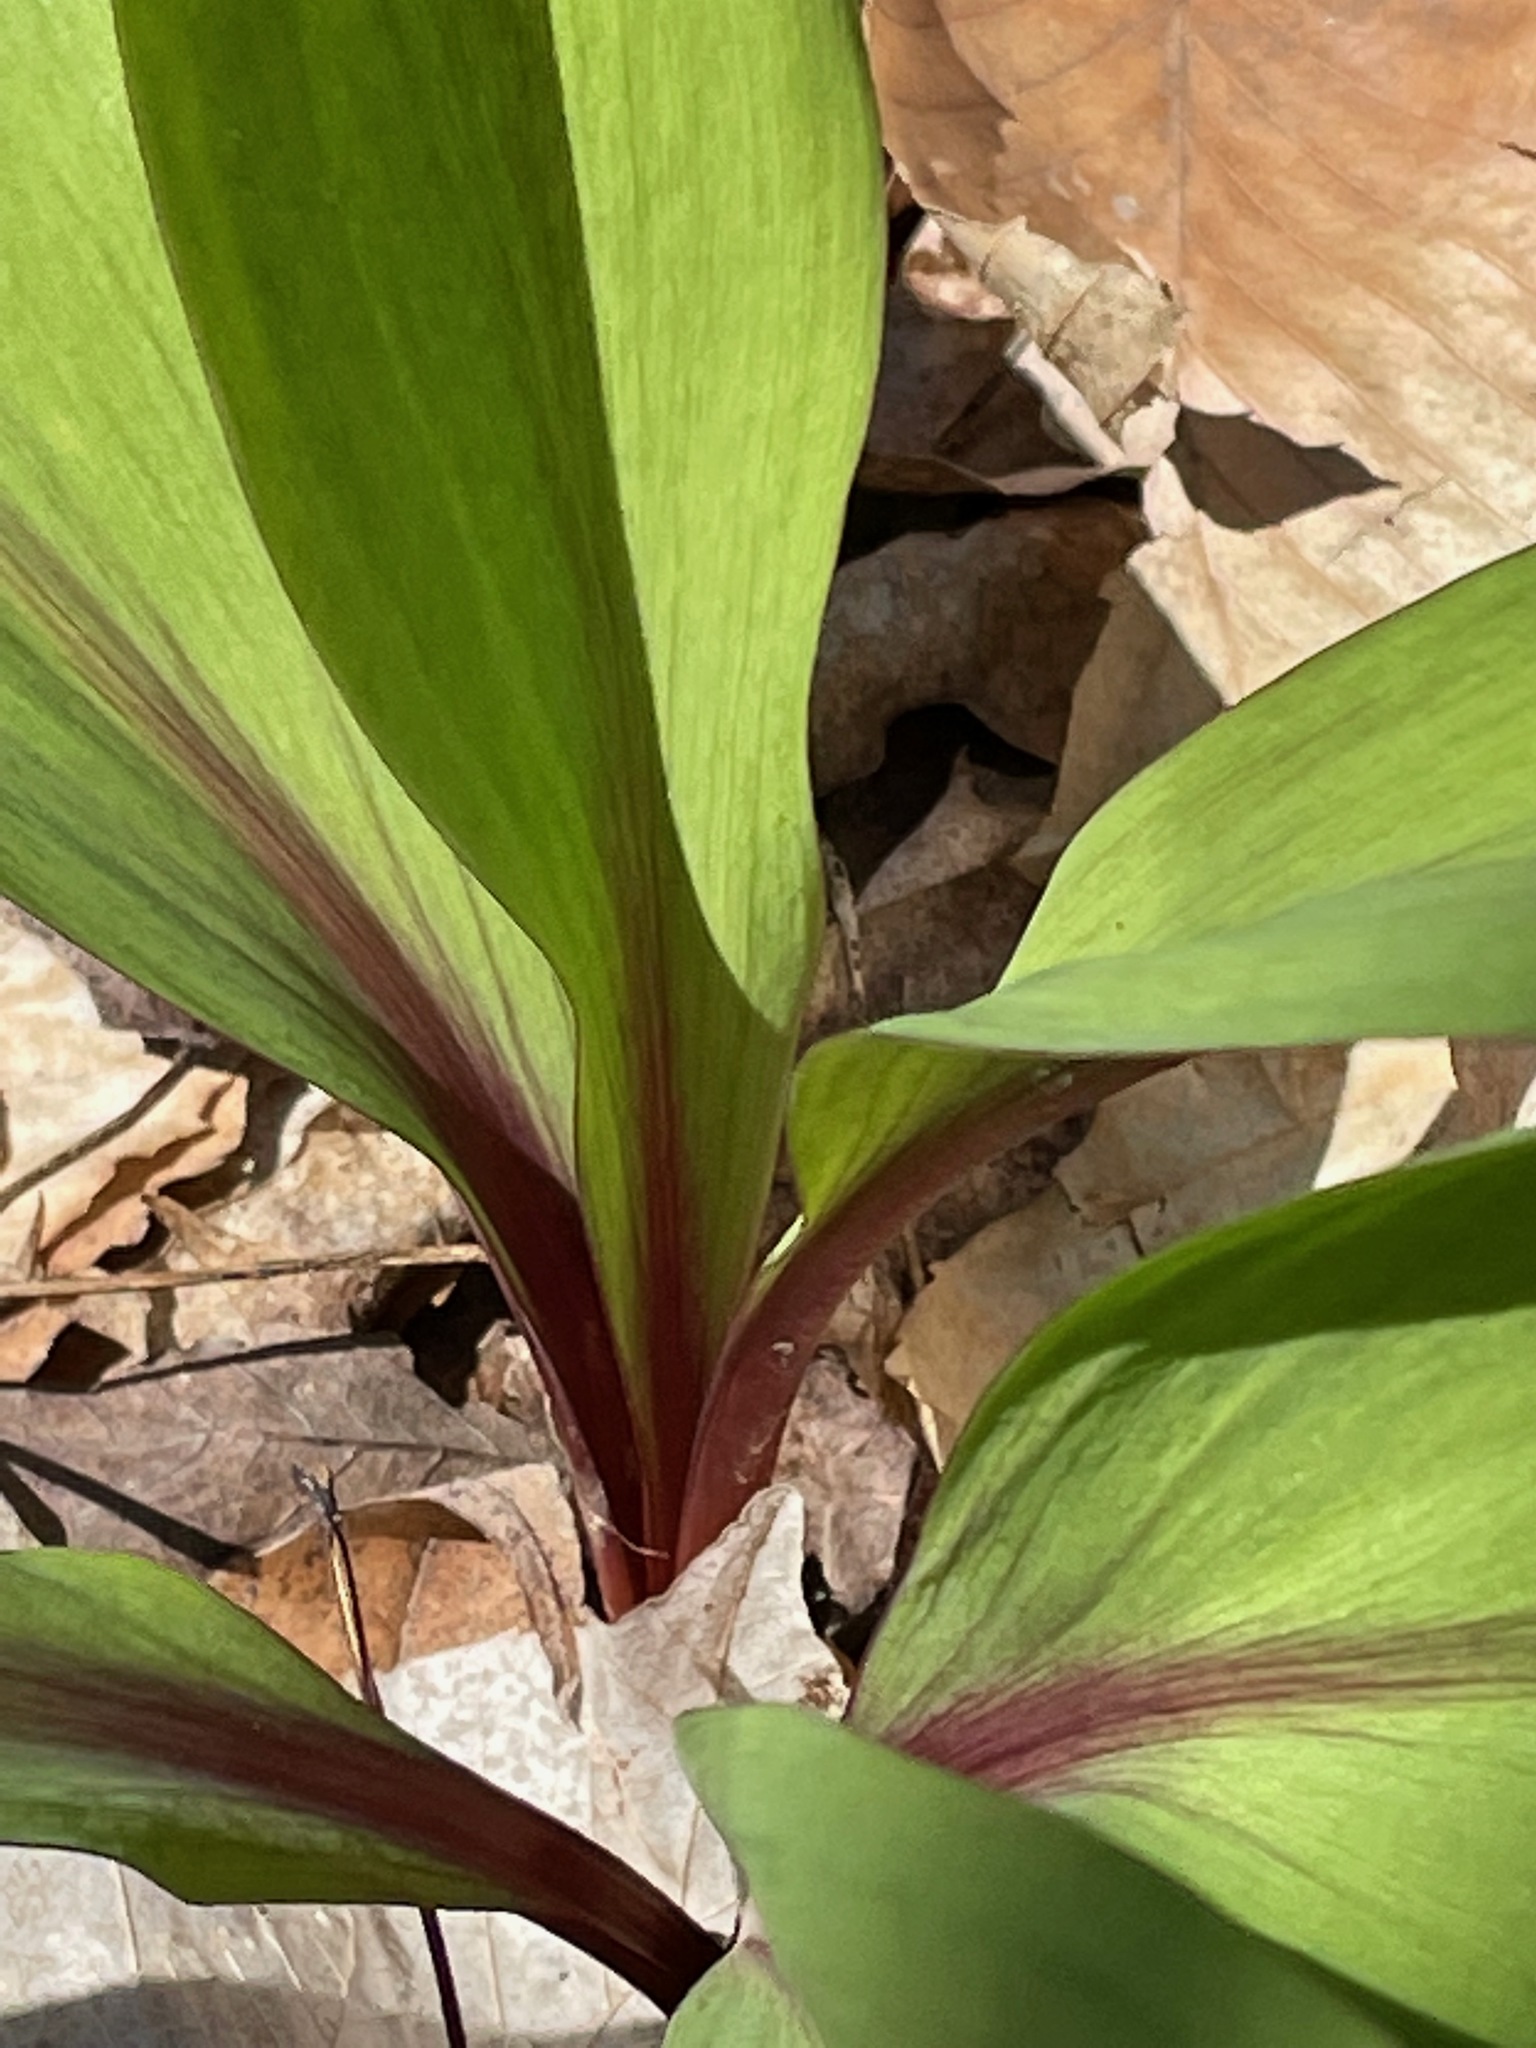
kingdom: Plantae
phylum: Tracheophyta
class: Liliopsida
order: Asparagales
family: Amaryllidaceae
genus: Allium
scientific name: Allium tricoccum
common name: Ramp
